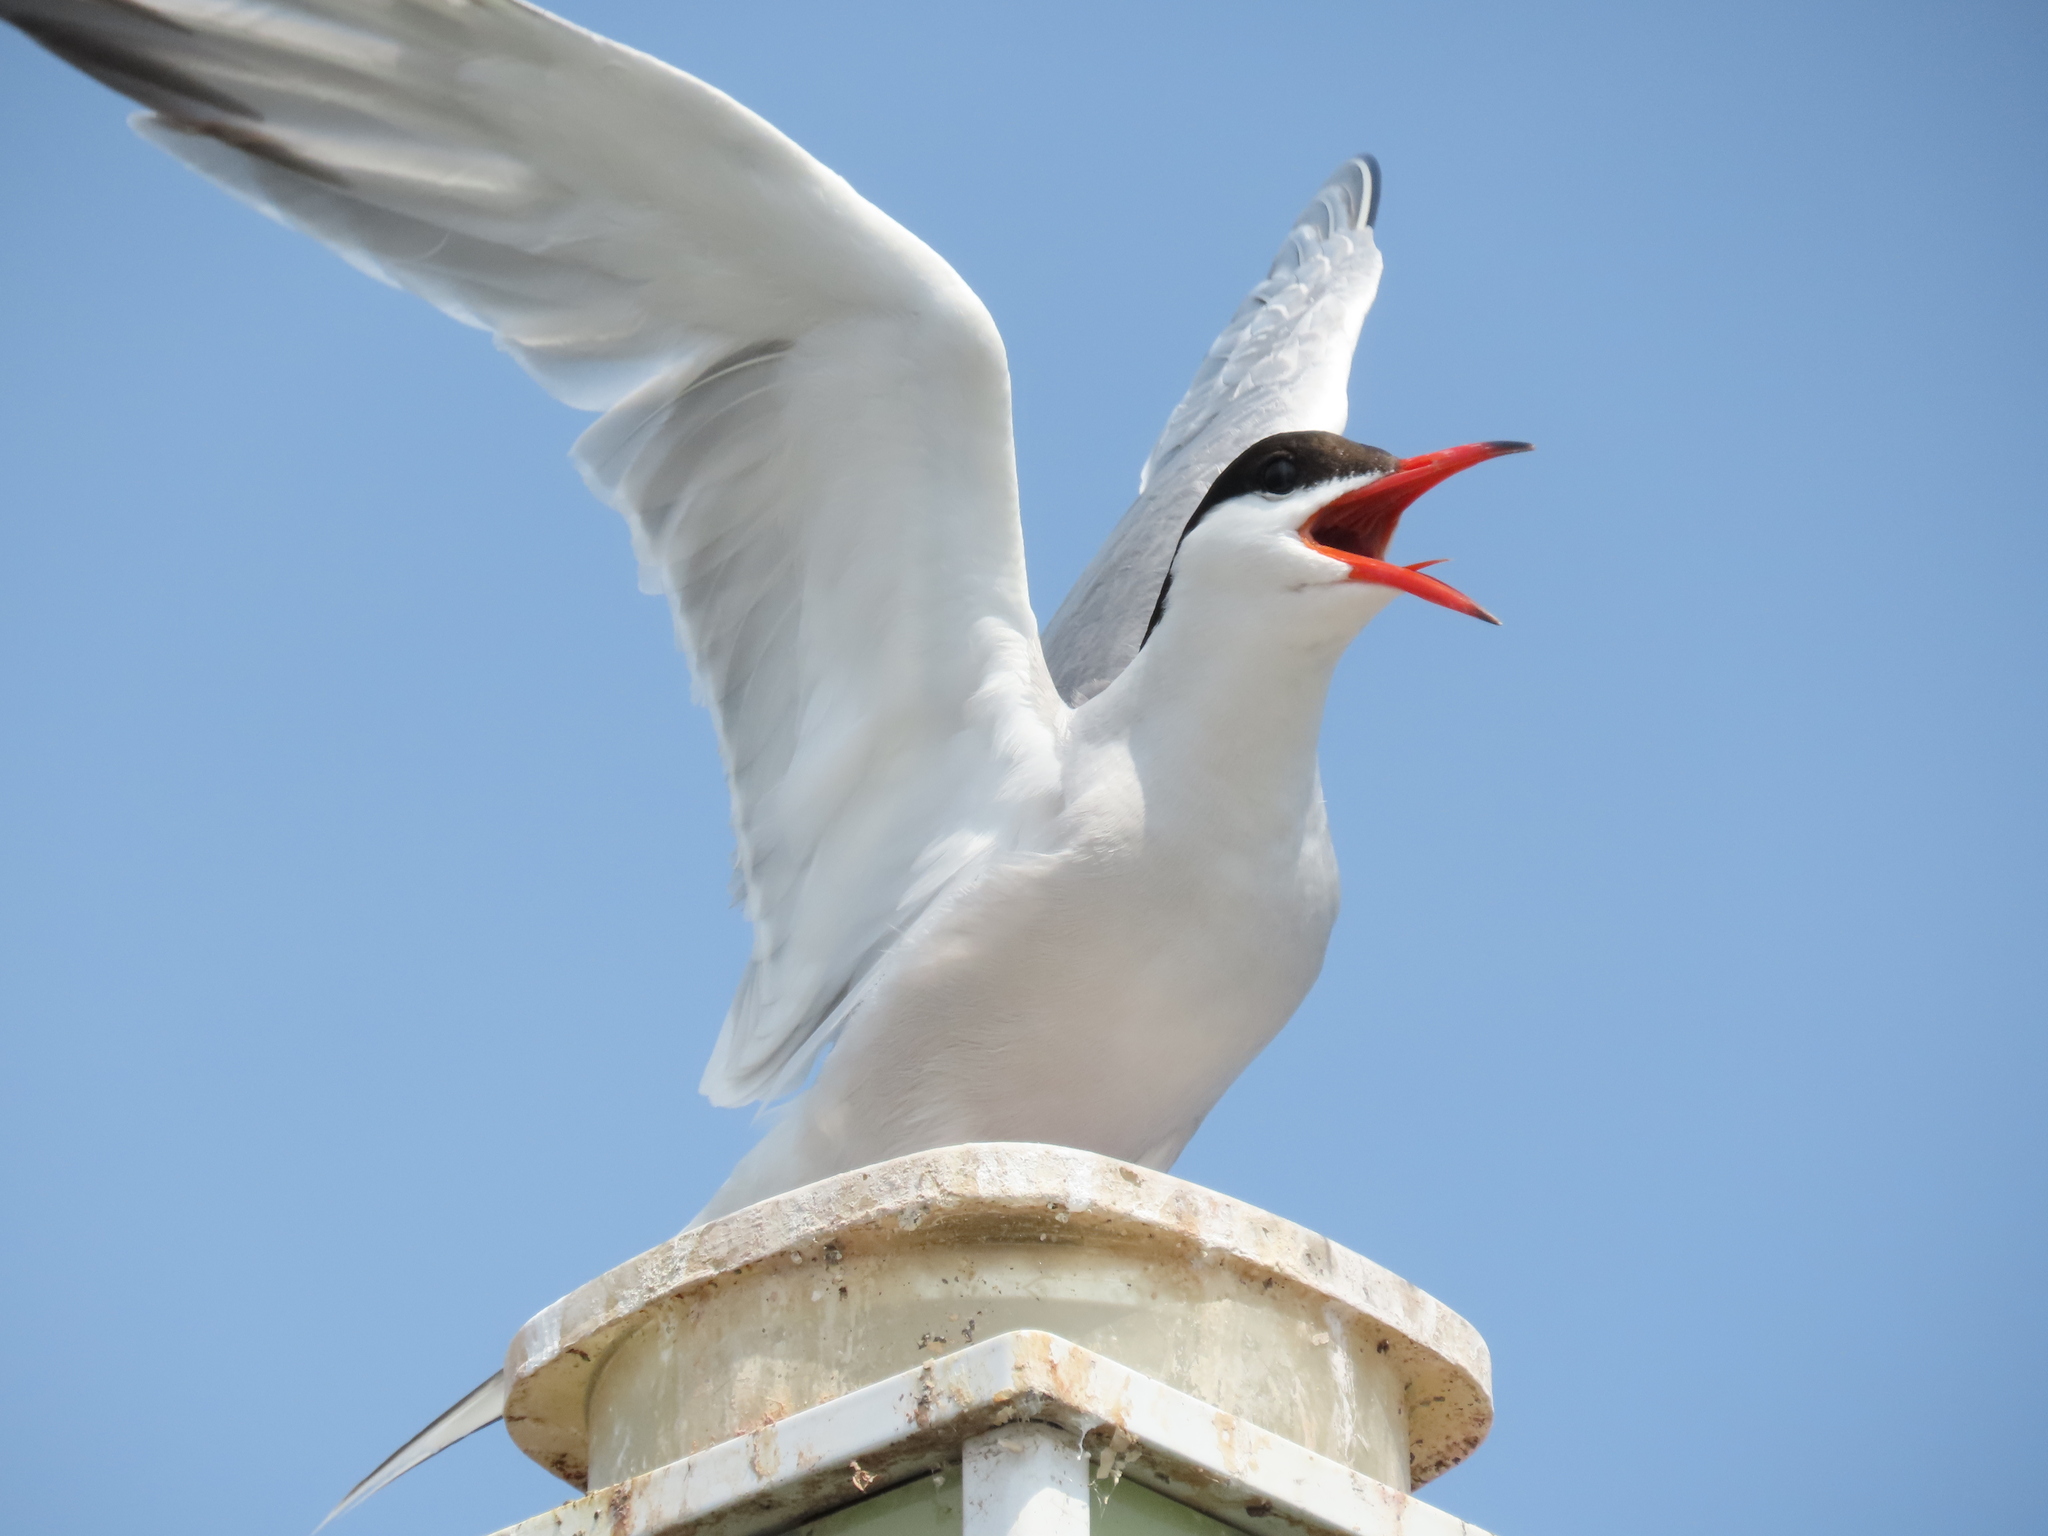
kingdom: Animalia
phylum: Chordata
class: Aves
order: Charadriiformes
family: Laridae
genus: Sterna
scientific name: Sterna hirundo
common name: Common tern
